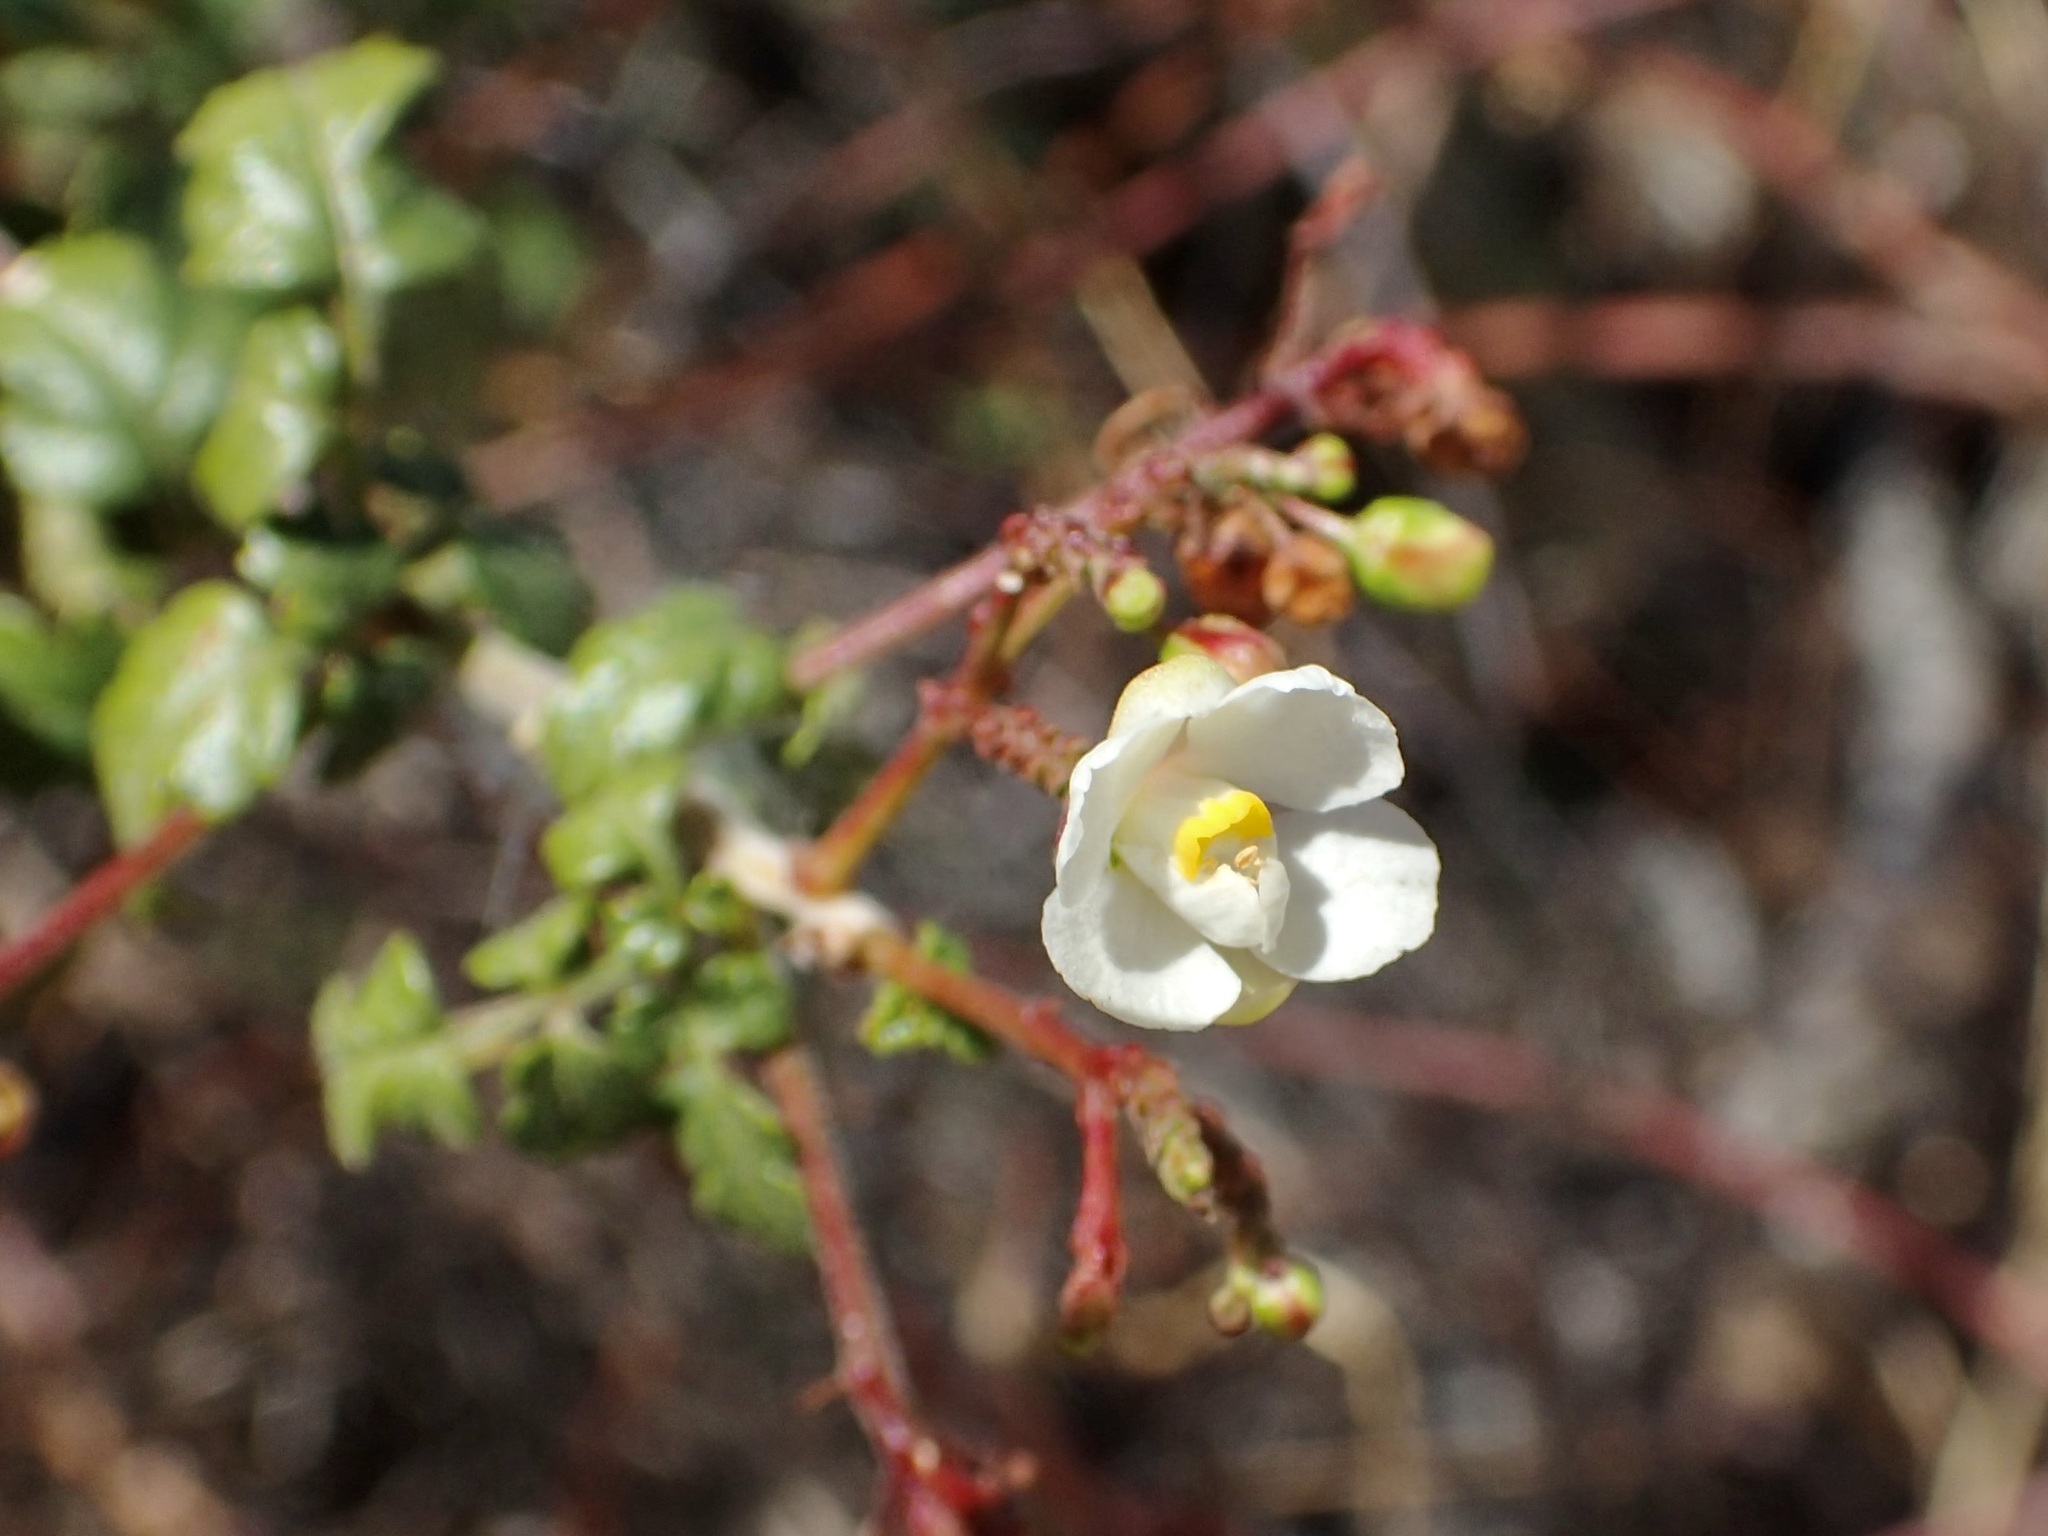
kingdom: Plantae
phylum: Tracheophyta
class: Magnoliopsida
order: Sapindales
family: Sapindaceae
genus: Cardiospermum
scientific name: Cardiospermum corindum
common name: Faux persil
